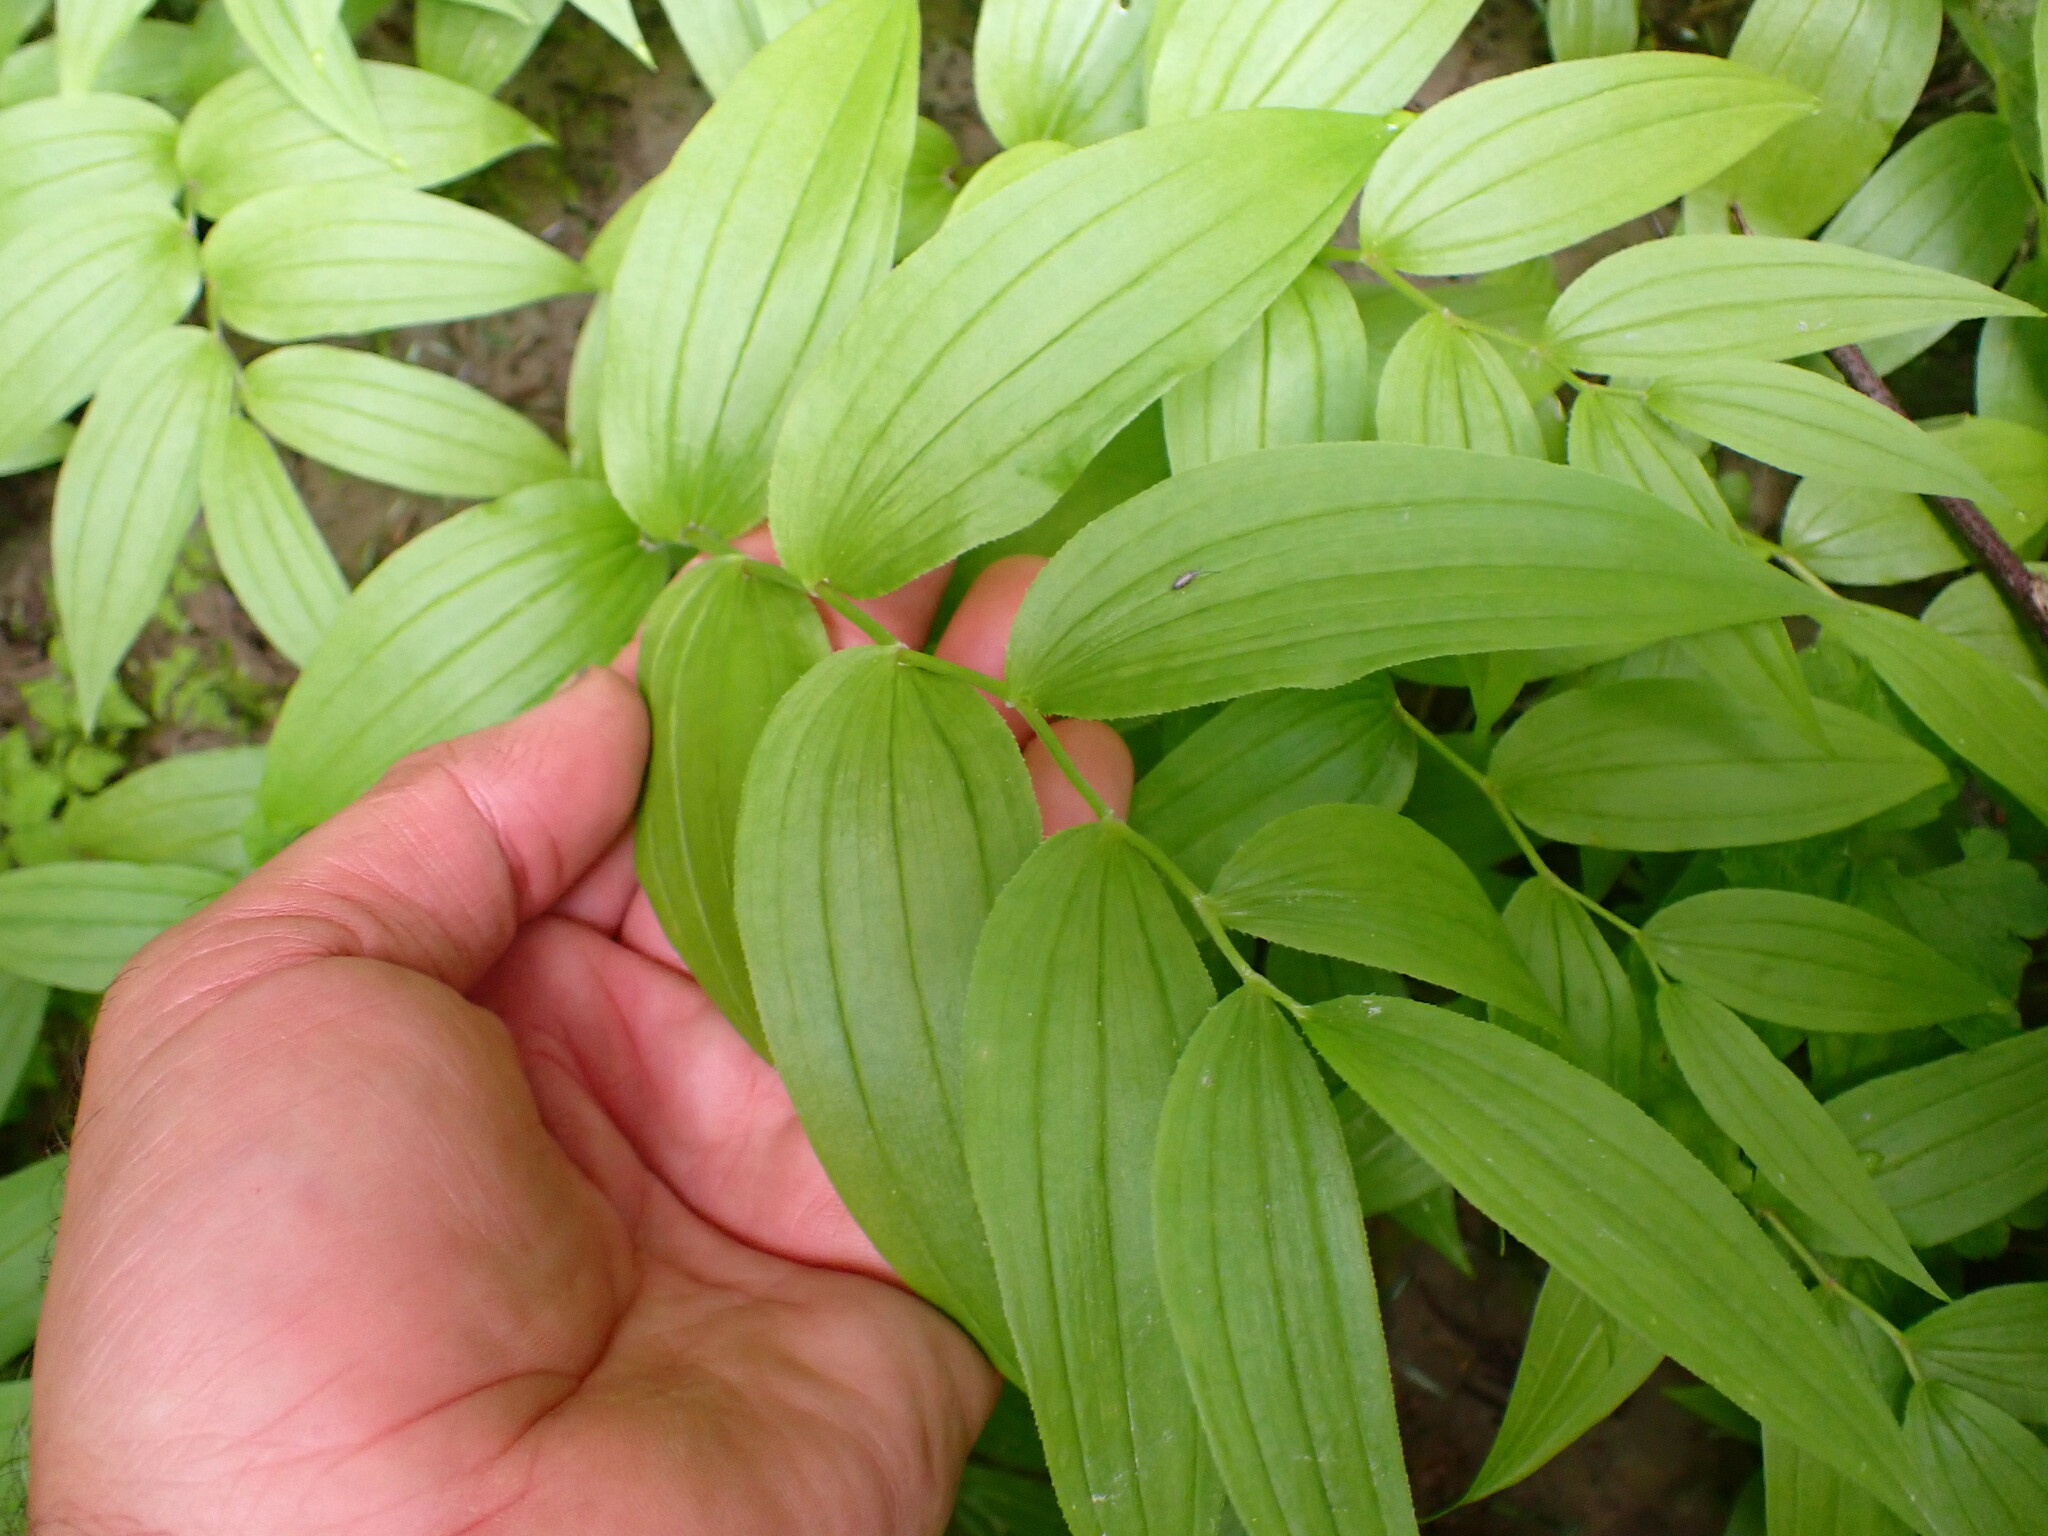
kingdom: Plantae
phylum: Tracheophyta
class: Liliopsida
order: Liliales
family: Liliaceae
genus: Streptopus
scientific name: Streptopus lanceolatus
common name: Rose mandarin
